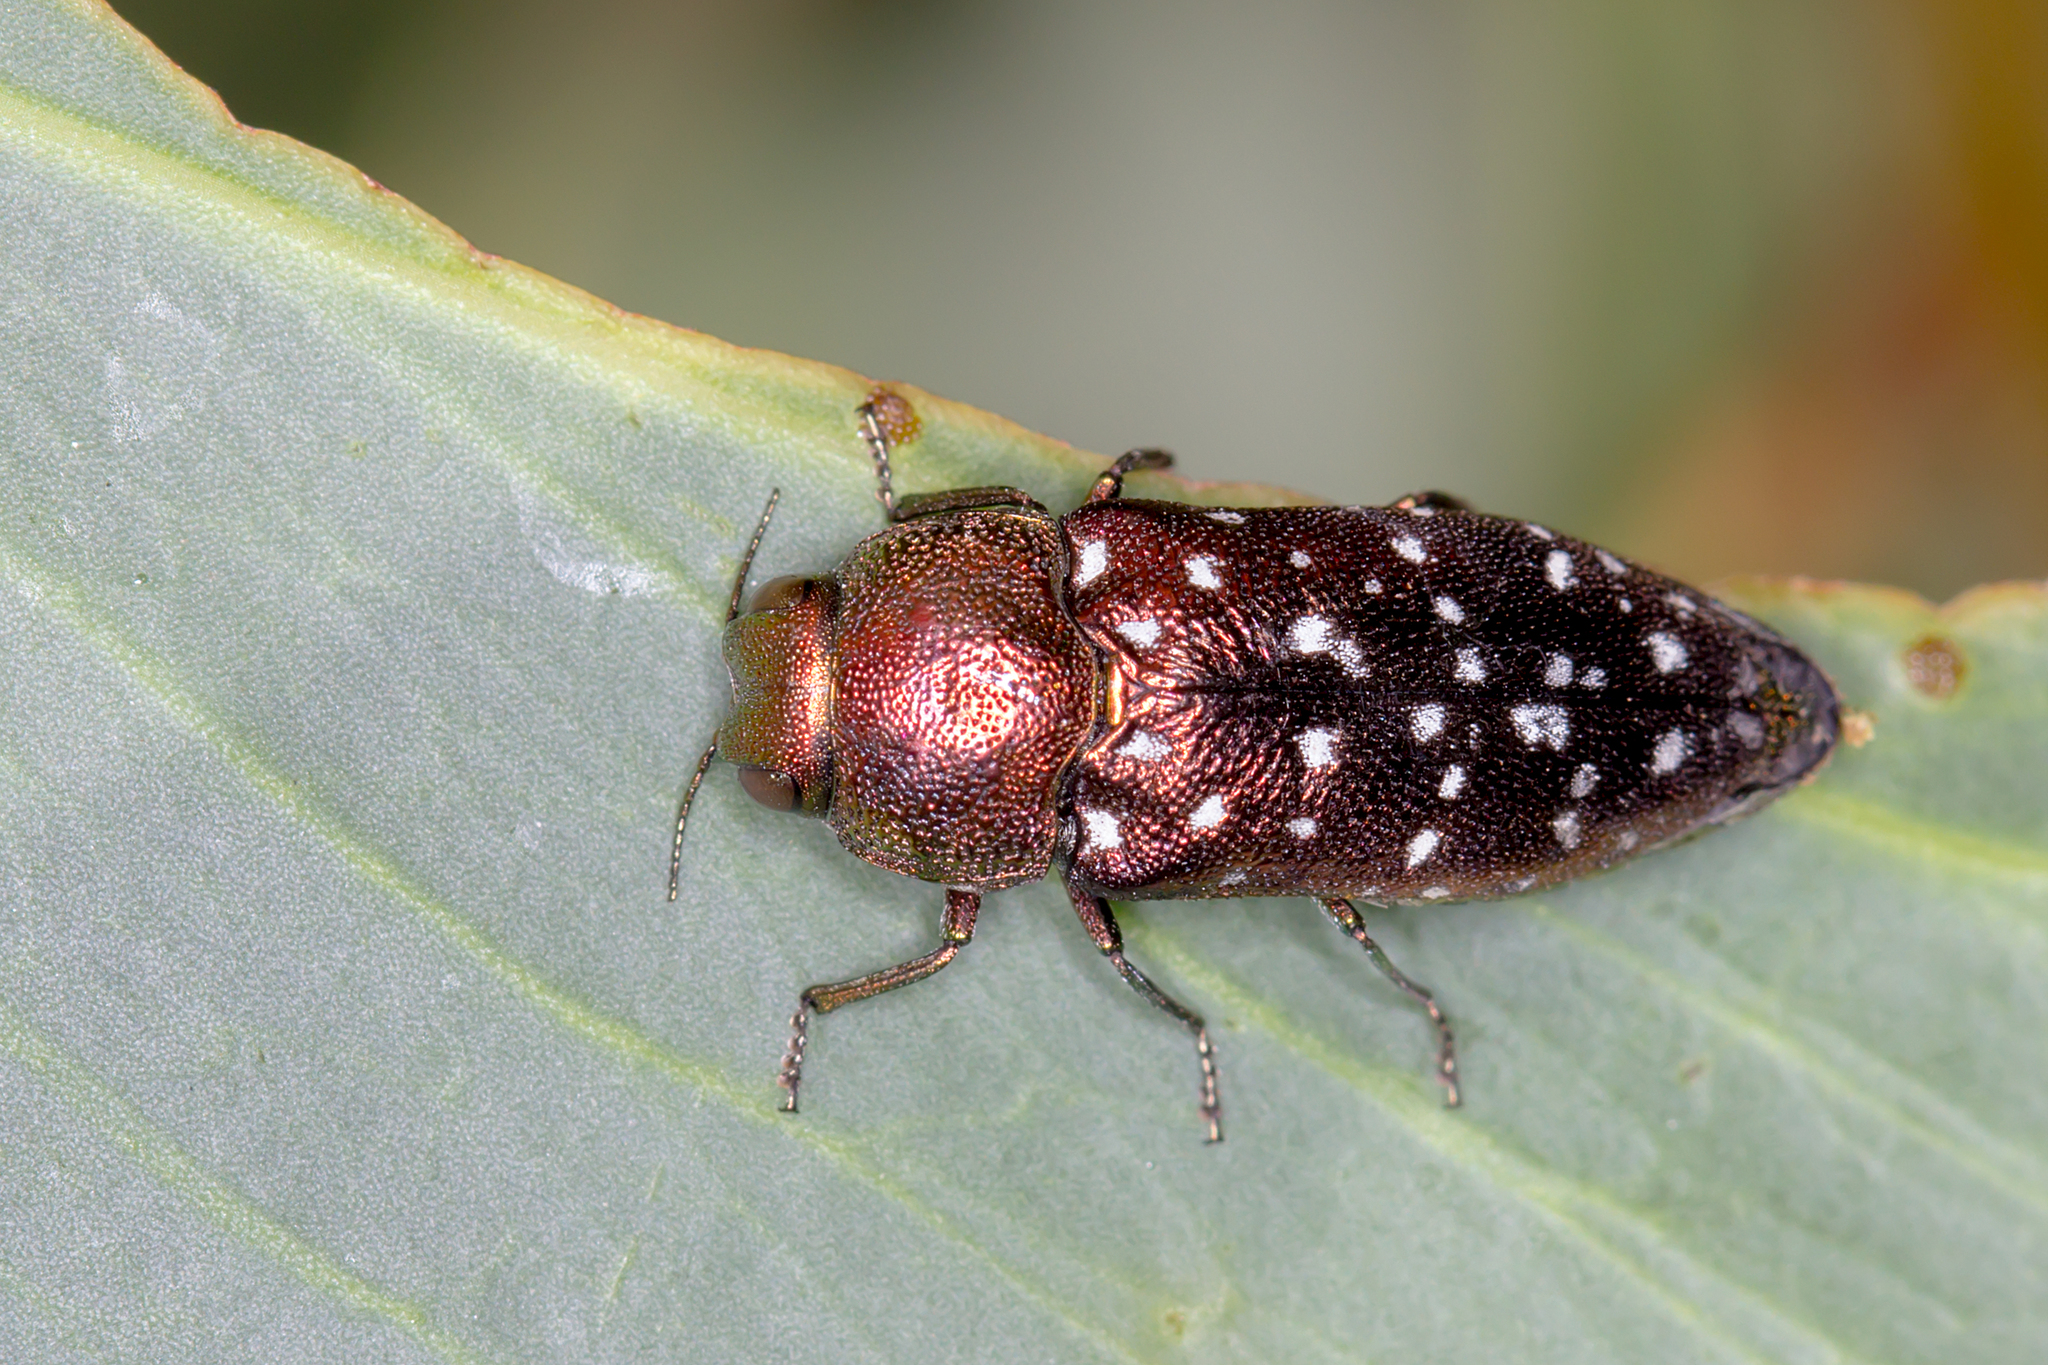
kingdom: Animalia
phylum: Arthropoda
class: Insecta
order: Coleoptera
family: Buprestidae
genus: Diphucrania
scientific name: Diphucrania leucosticta
